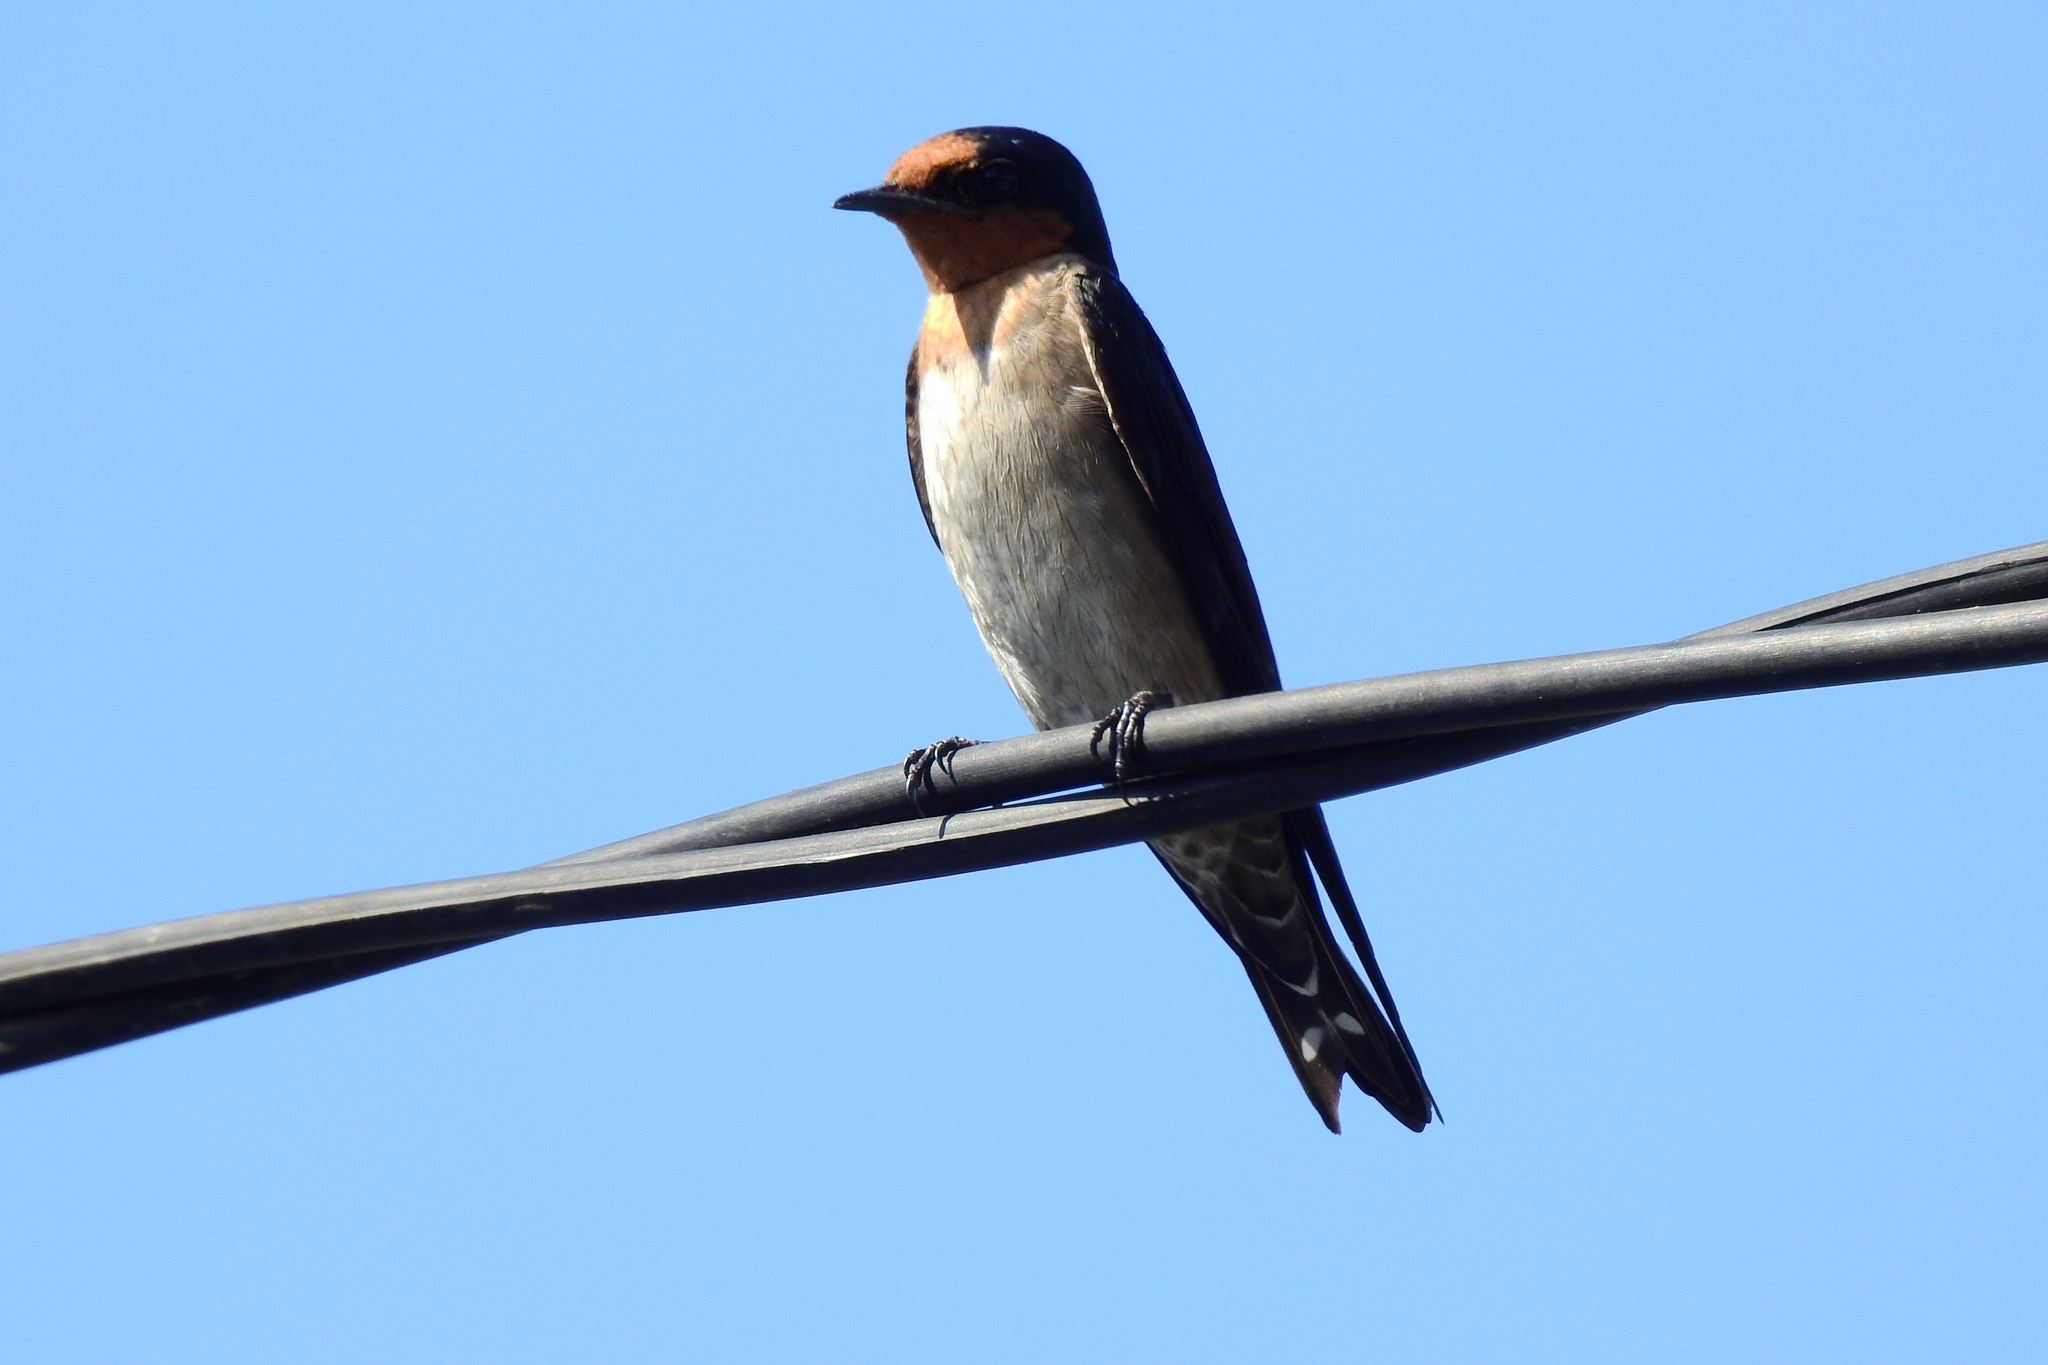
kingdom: Animalia
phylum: Chordata
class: Aves
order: Passeriformes
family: Hirundinidae
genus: Hirundo
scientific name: Hirundo tahitica
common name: Pacific swallow
